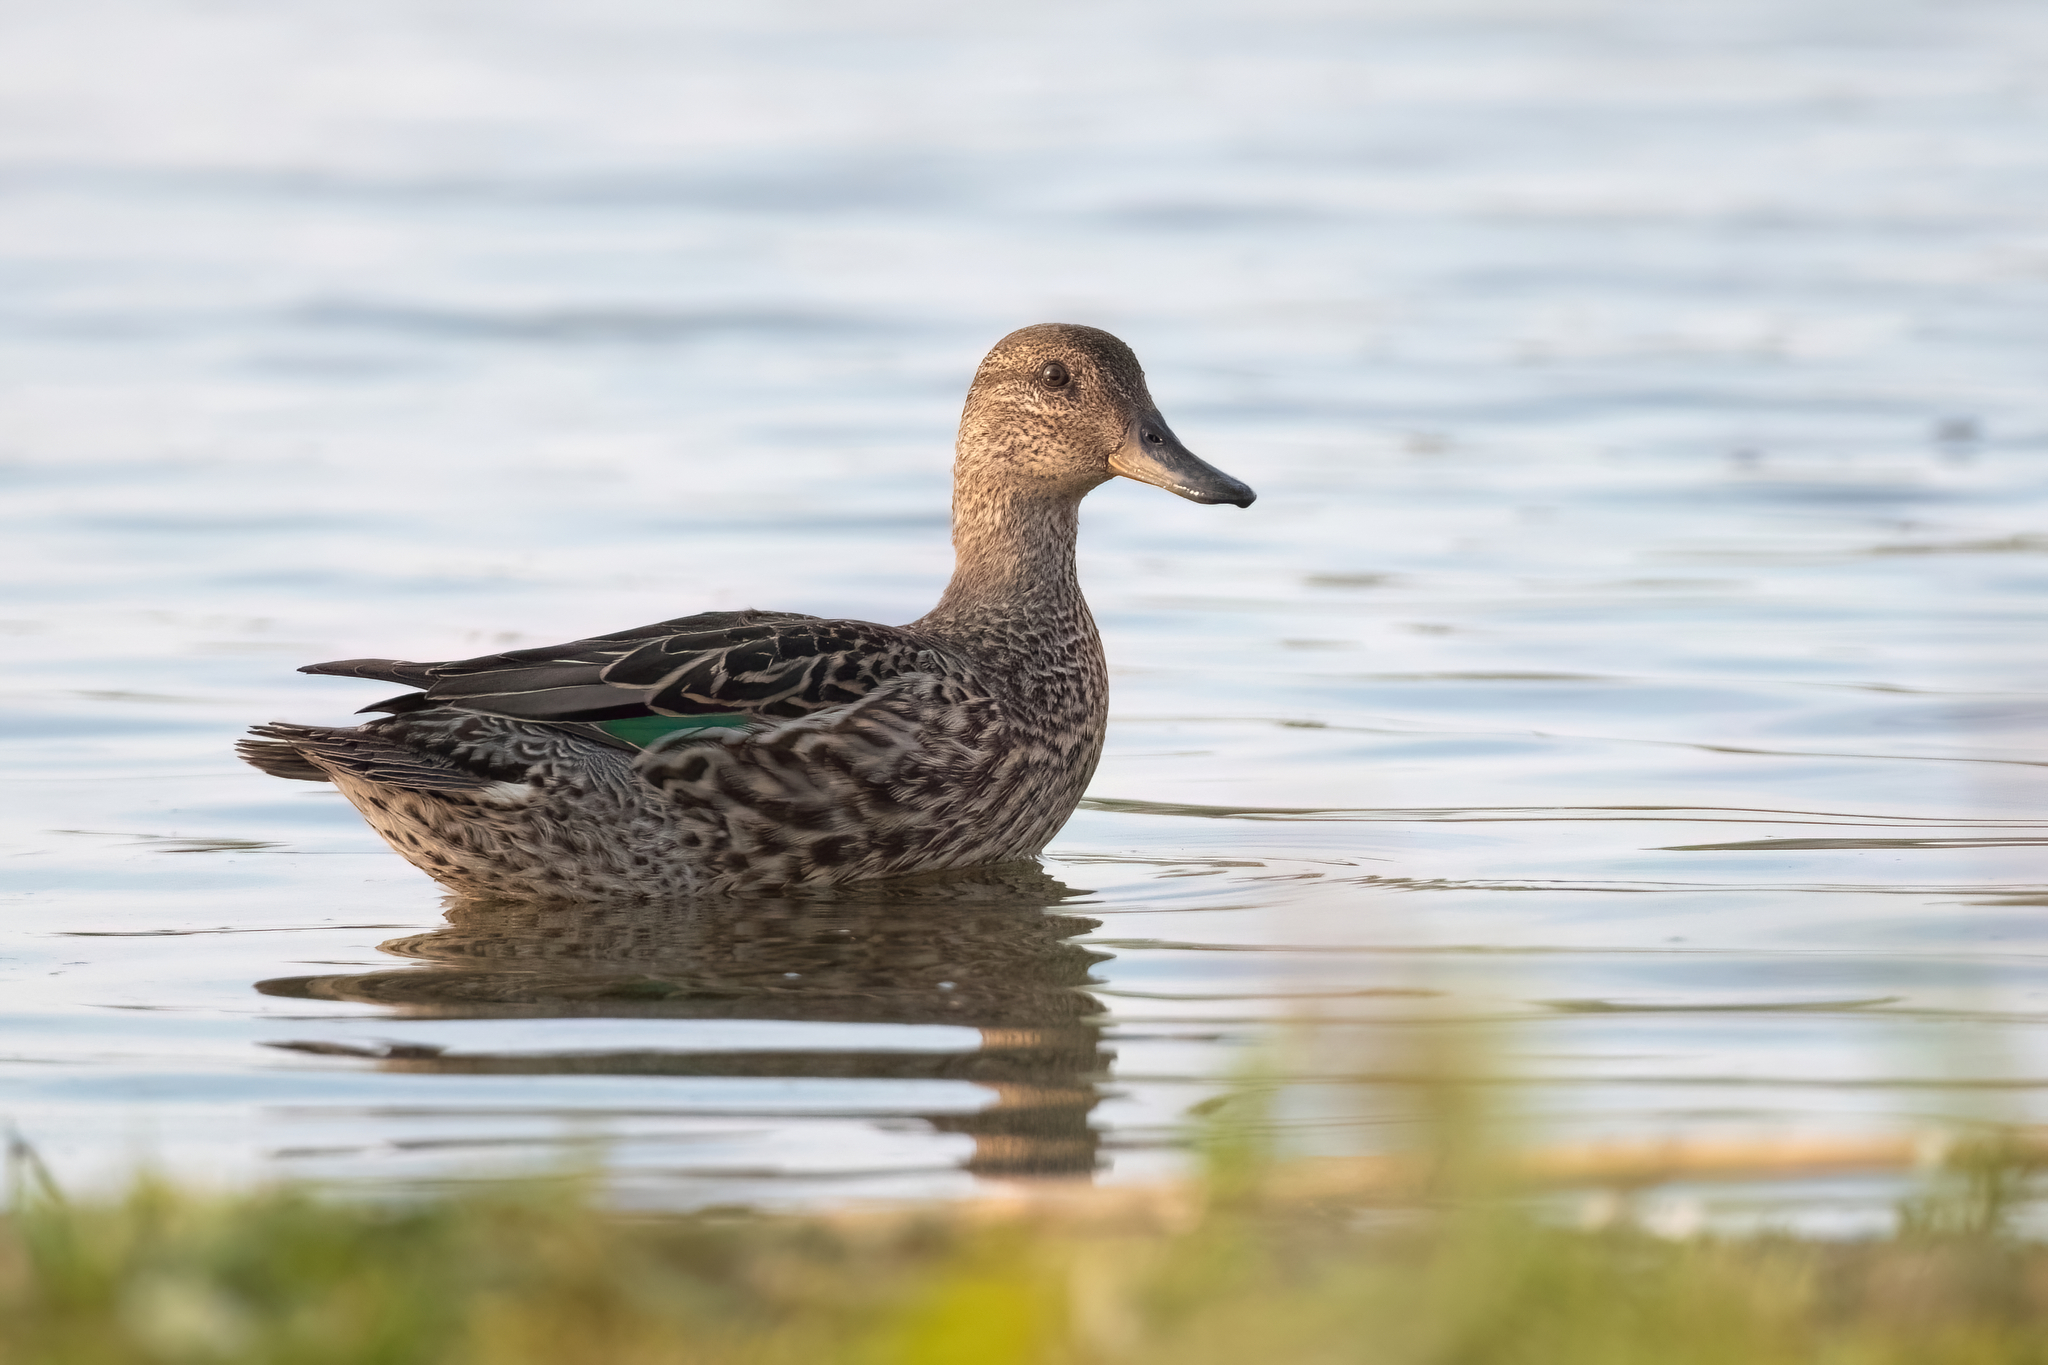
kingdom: Animalia
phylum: Chordata
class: Aves
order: Anseriformes
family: Anatidae
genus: Anas
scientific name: Anas crecca
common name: Eurasian teal
